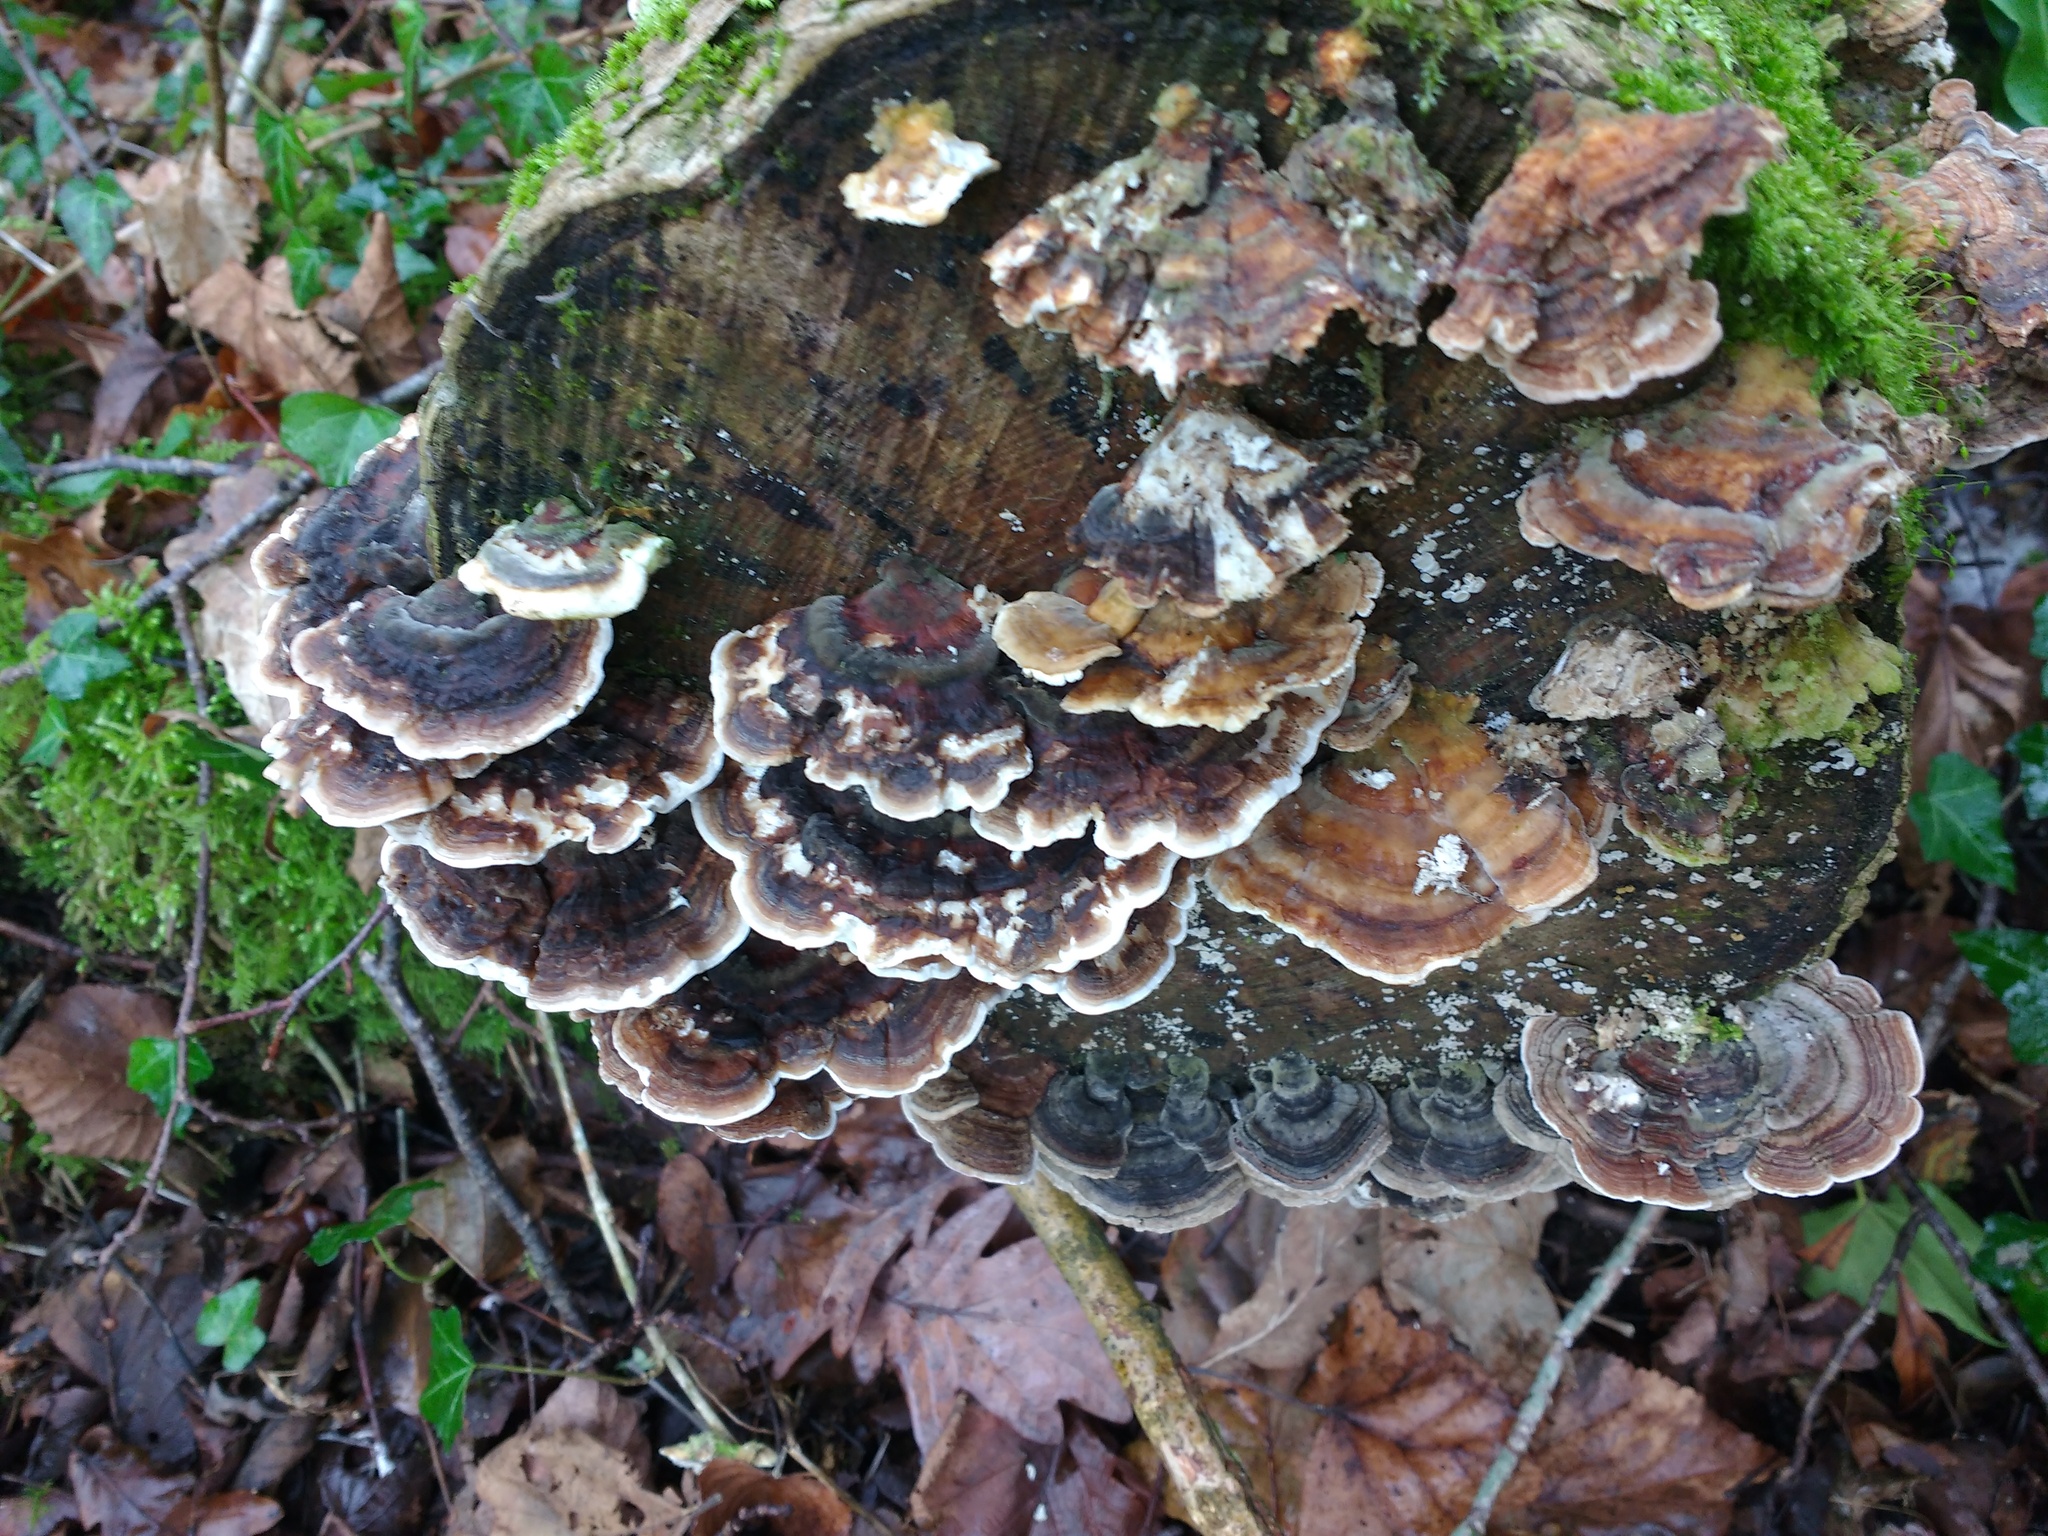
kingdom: Fungi
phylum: Basidiomycota
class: Agaricomycetes
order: Polyporales
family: Polyporaceae
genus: Trametes
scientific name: Trametes versicolor
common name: Turkeytail
